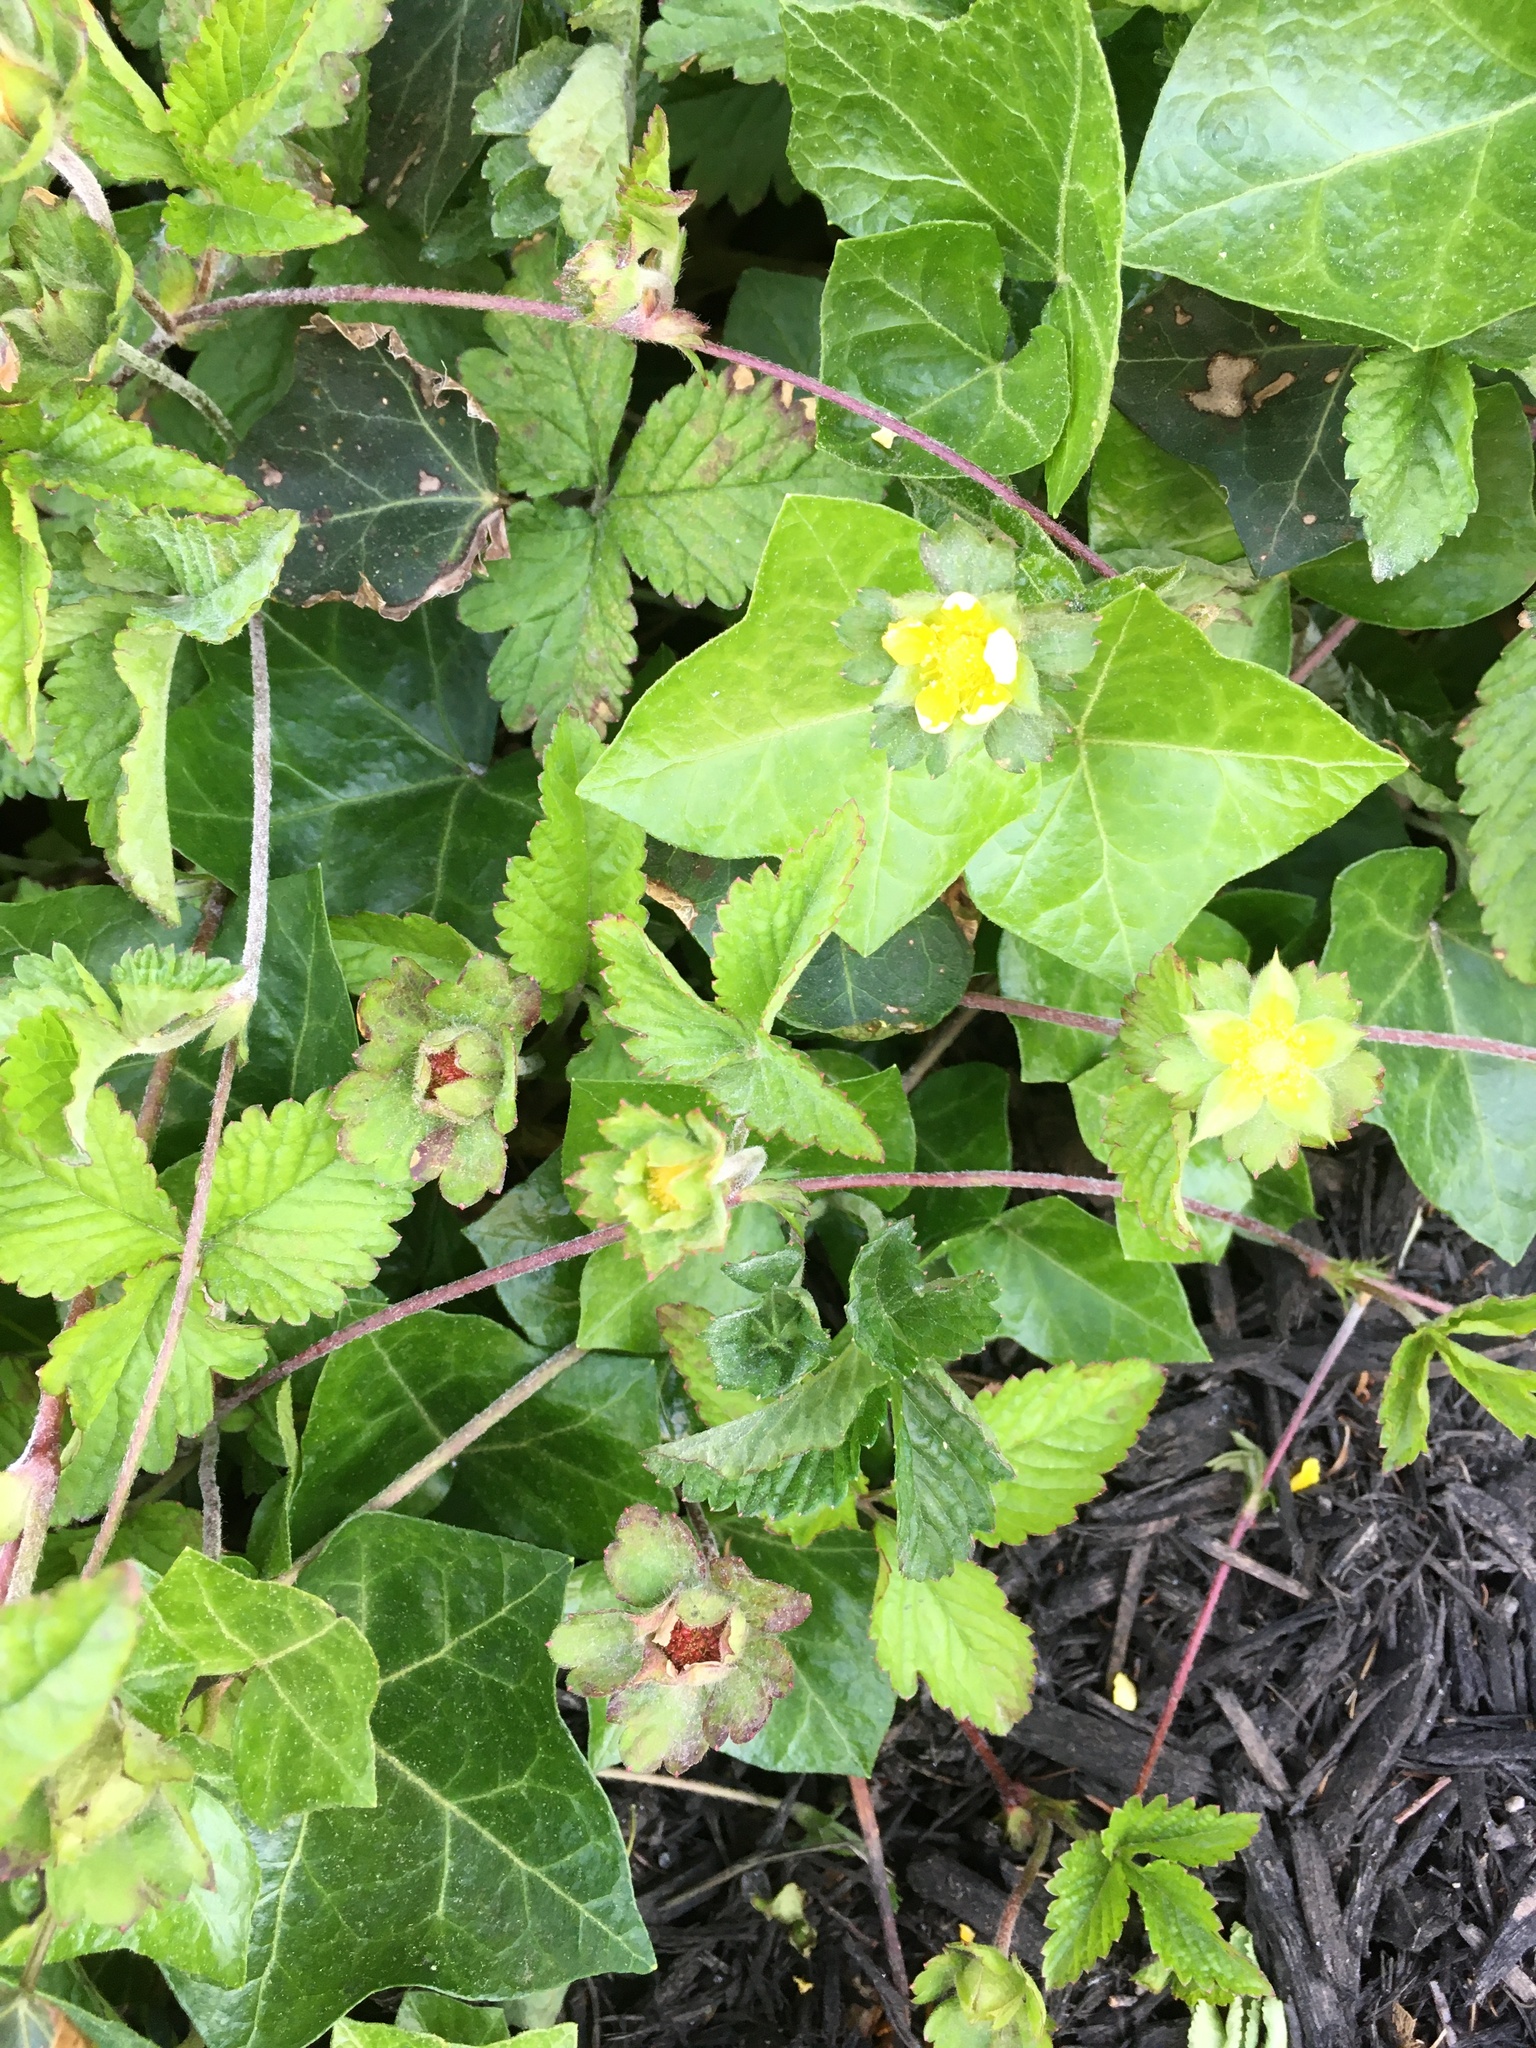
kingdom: Plantae
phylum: Tracheophyta
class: Magnoliopsida
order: Rosales
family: Rosaceae
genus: Potentilla
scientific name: Potentilla indica
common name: Yellow-flowered strawberry
